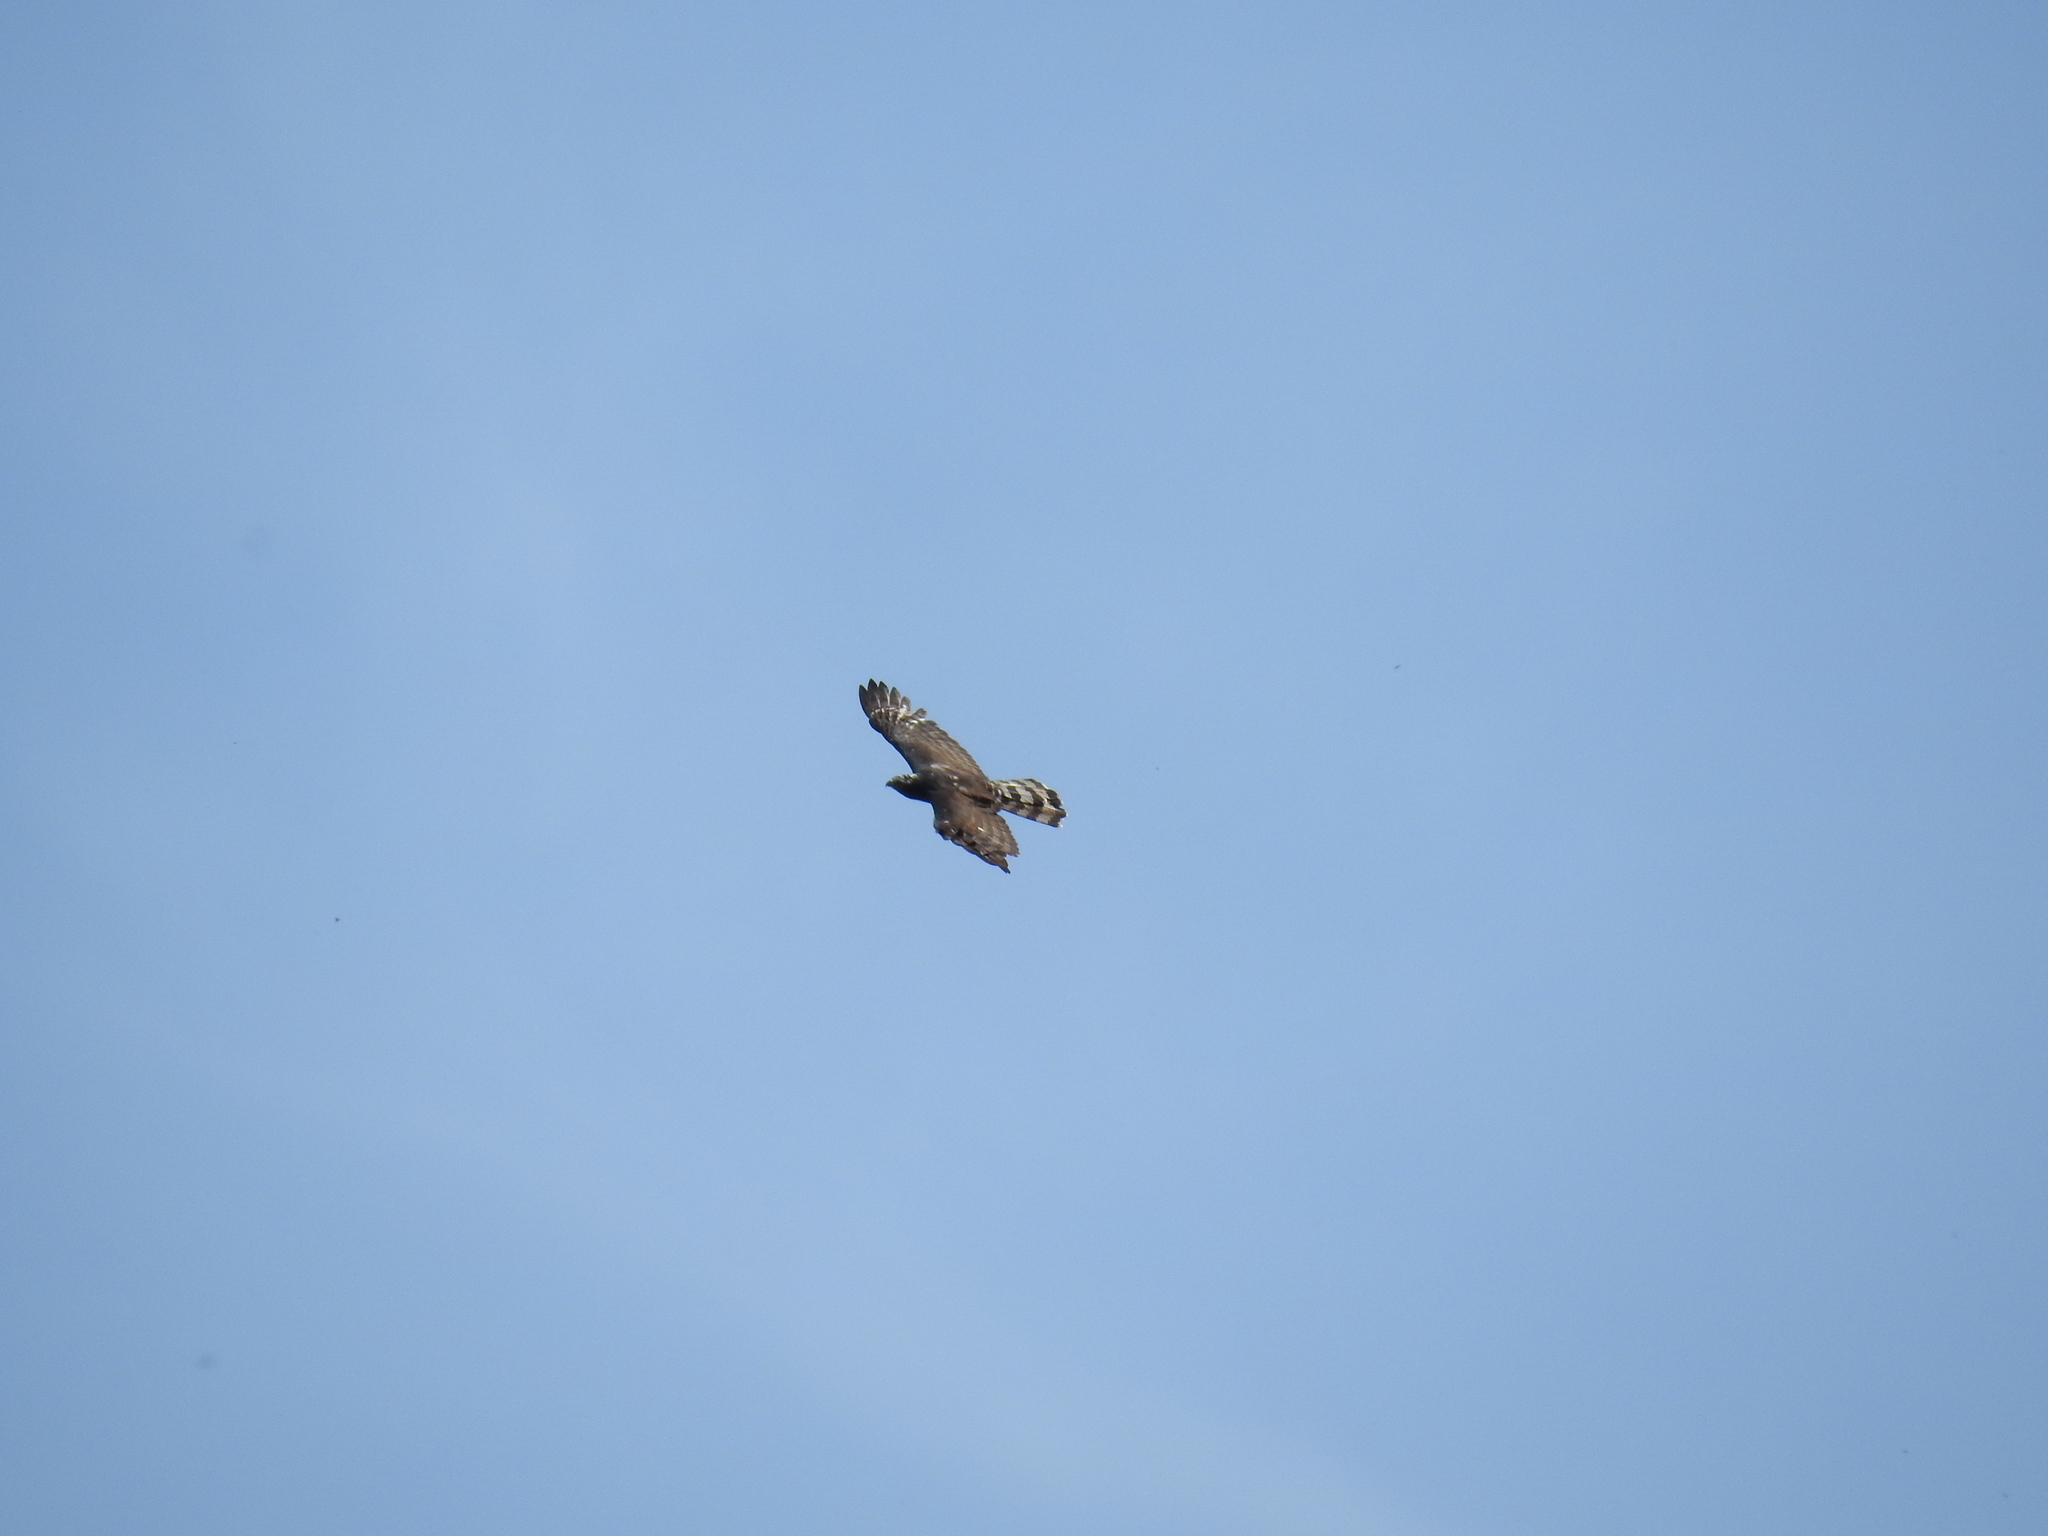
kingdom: Animalia
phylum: Chordata
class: Aves
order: Accipitriformes
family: Accipitridae
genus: Spizaetus
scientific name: Spizaetus tyrannus
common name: Black hawk-eagle
